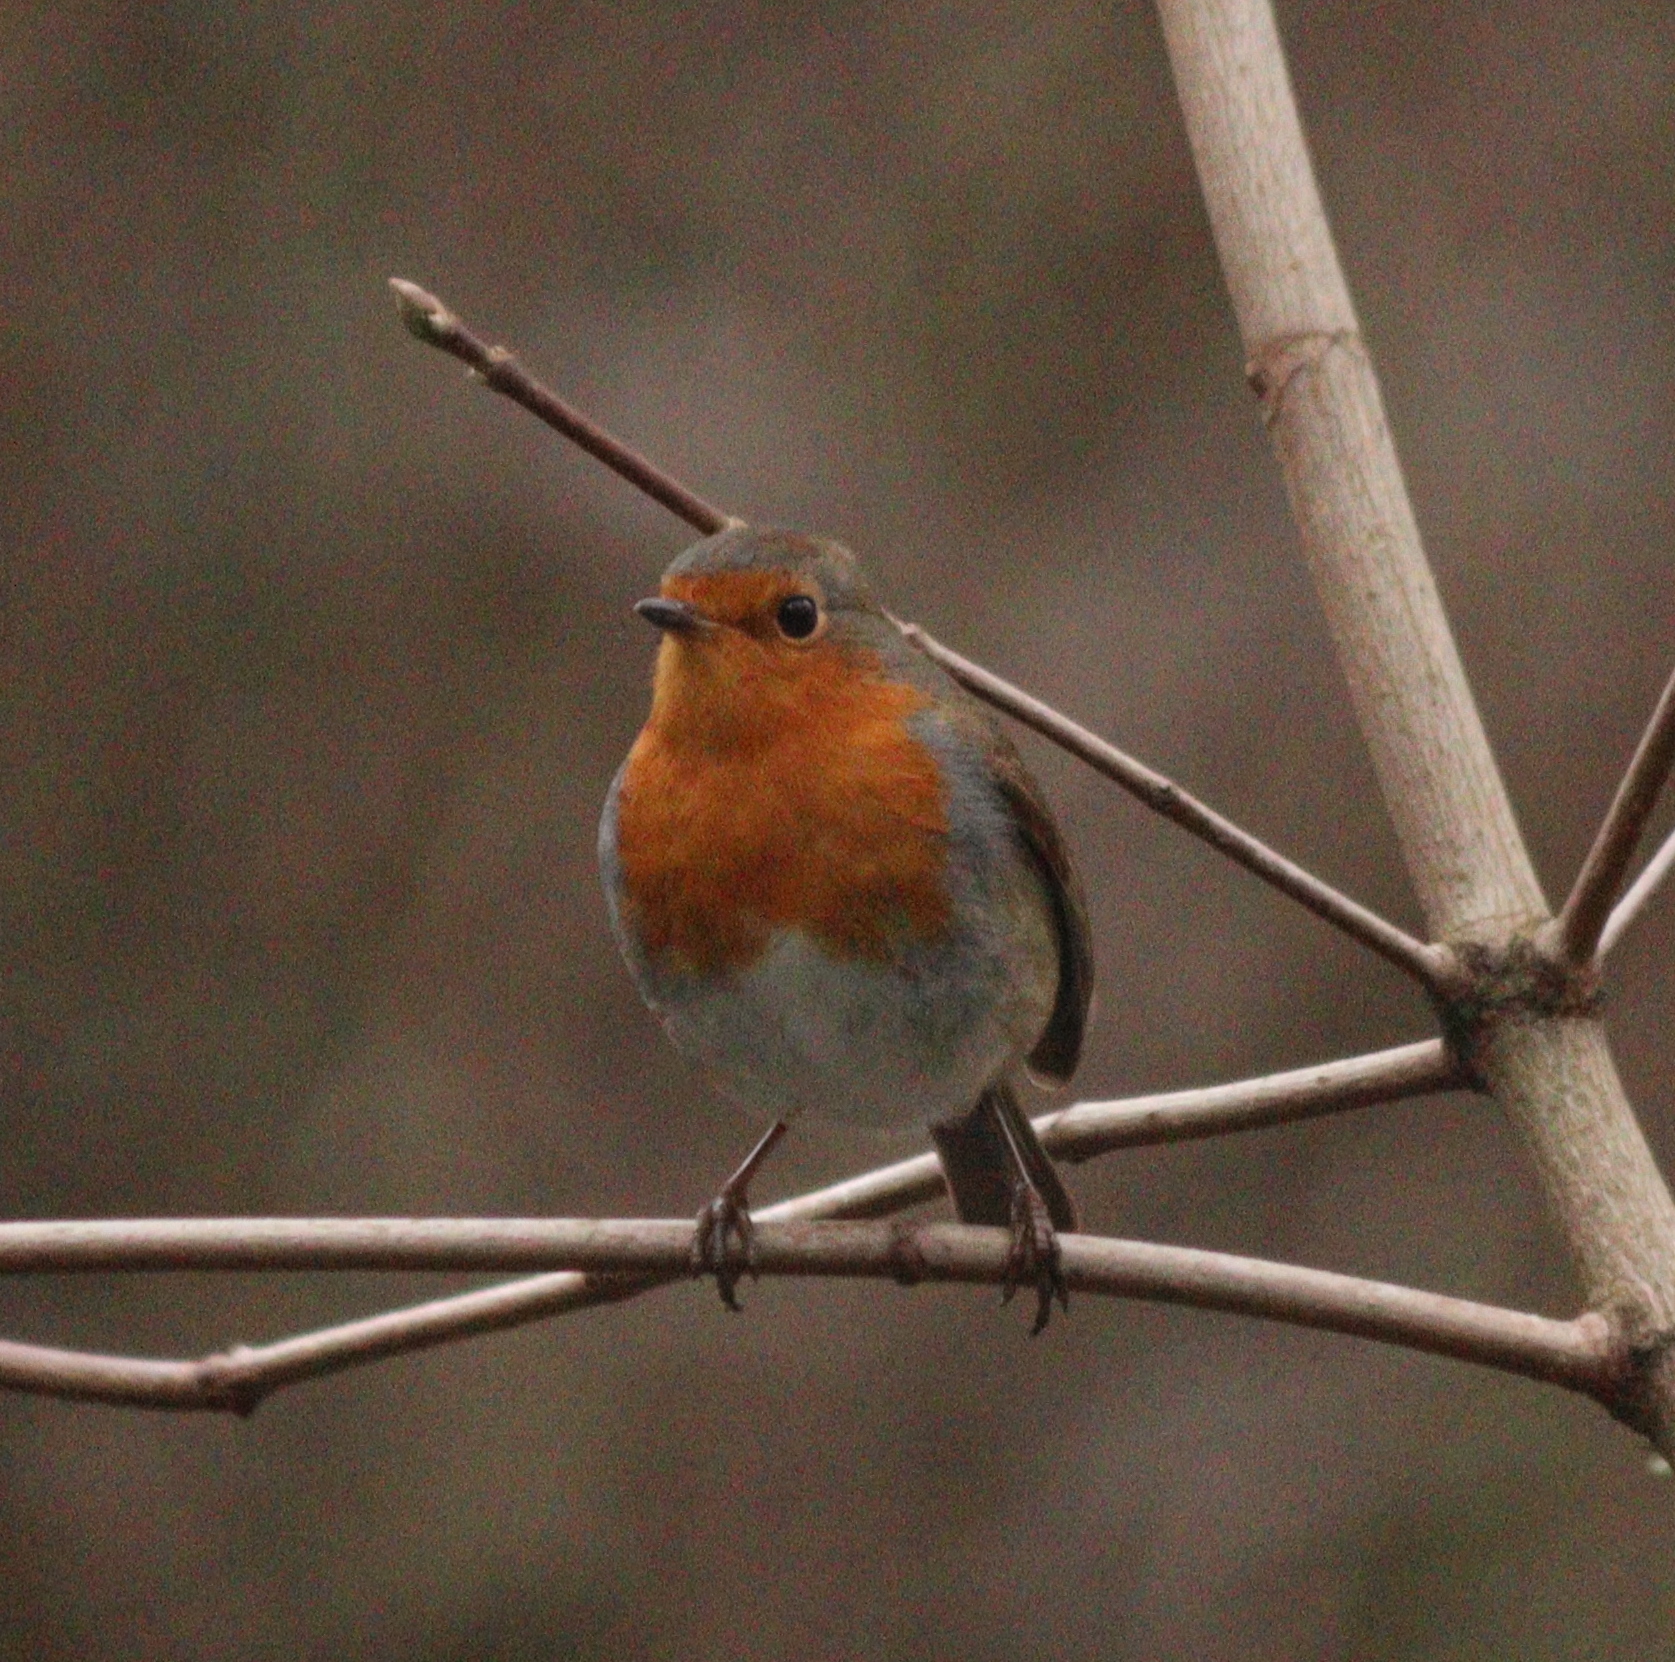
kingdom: Animalia
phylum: Chordata
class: Aves
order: Passeriformes
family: Muscicapidae
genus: Erithacus
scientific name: Erithacus rubecula
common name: European robin
